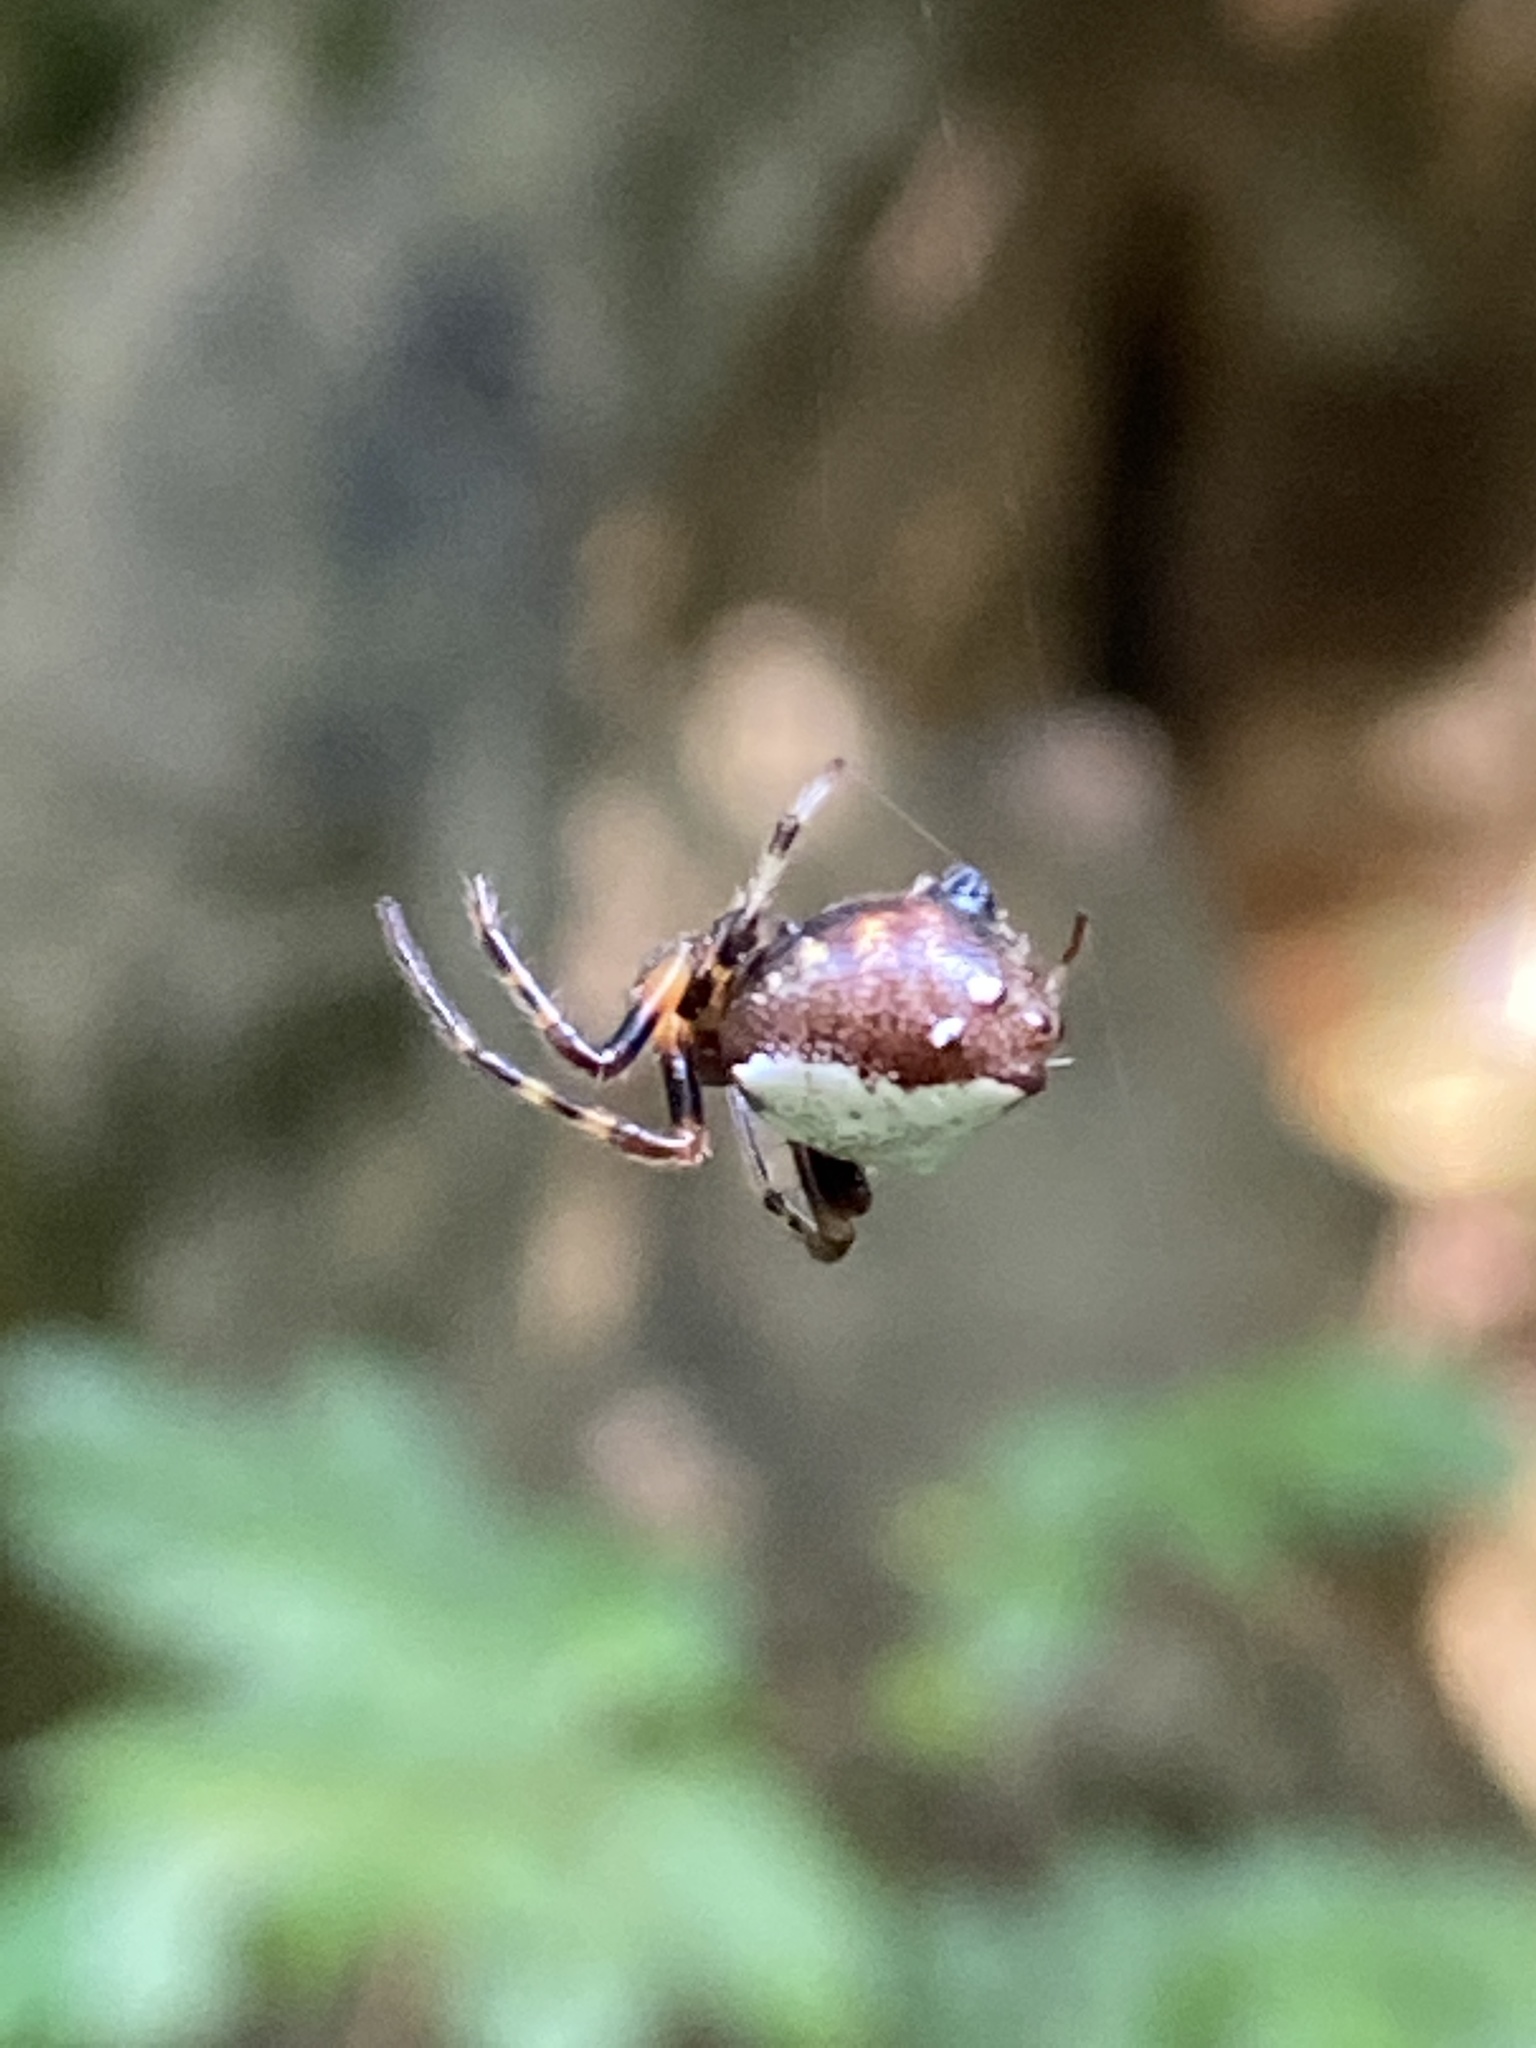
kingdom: Animalia
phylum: Arthropoda
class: Arachnida
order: Araneae
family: Araneidae
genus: Verrucosa
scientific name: Verrucosa arenata
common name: Orb weavers
